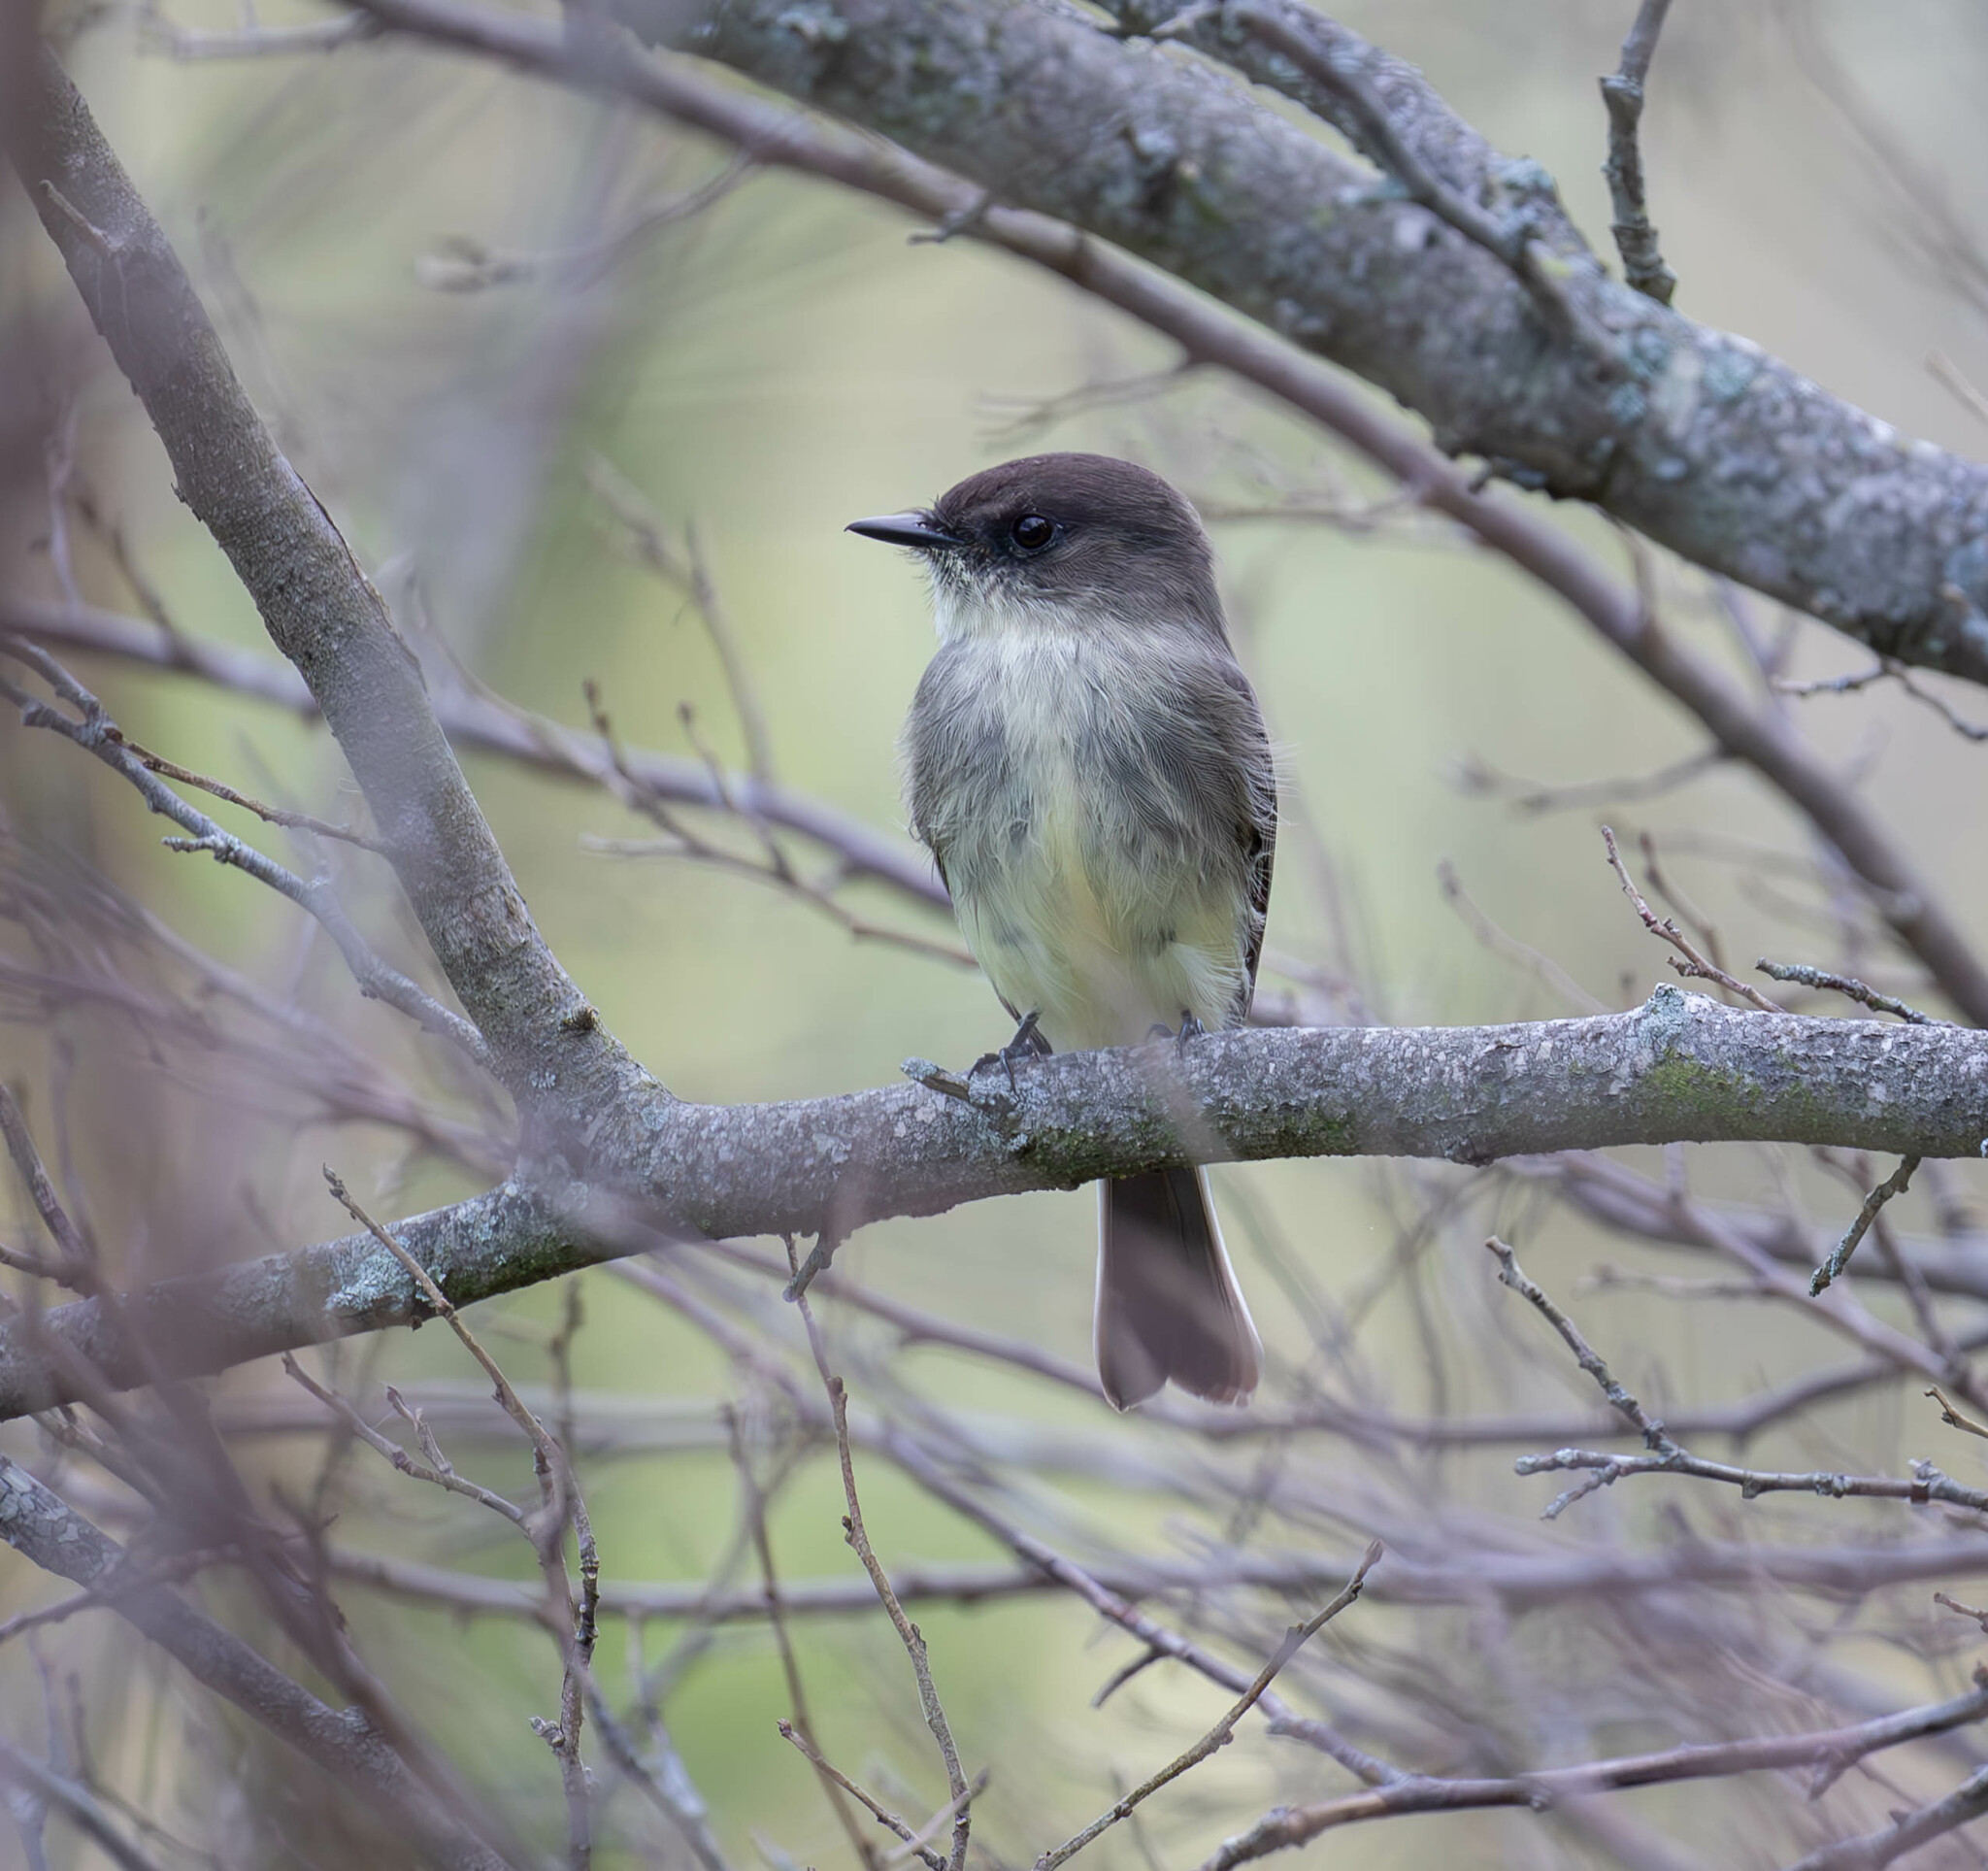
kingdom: Animalia
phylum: Chordata
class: Aves
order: Passeriformes
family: Tyrannidae
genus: Sayornis
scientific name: Sayornis phoebe
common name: Eastern phoebe
